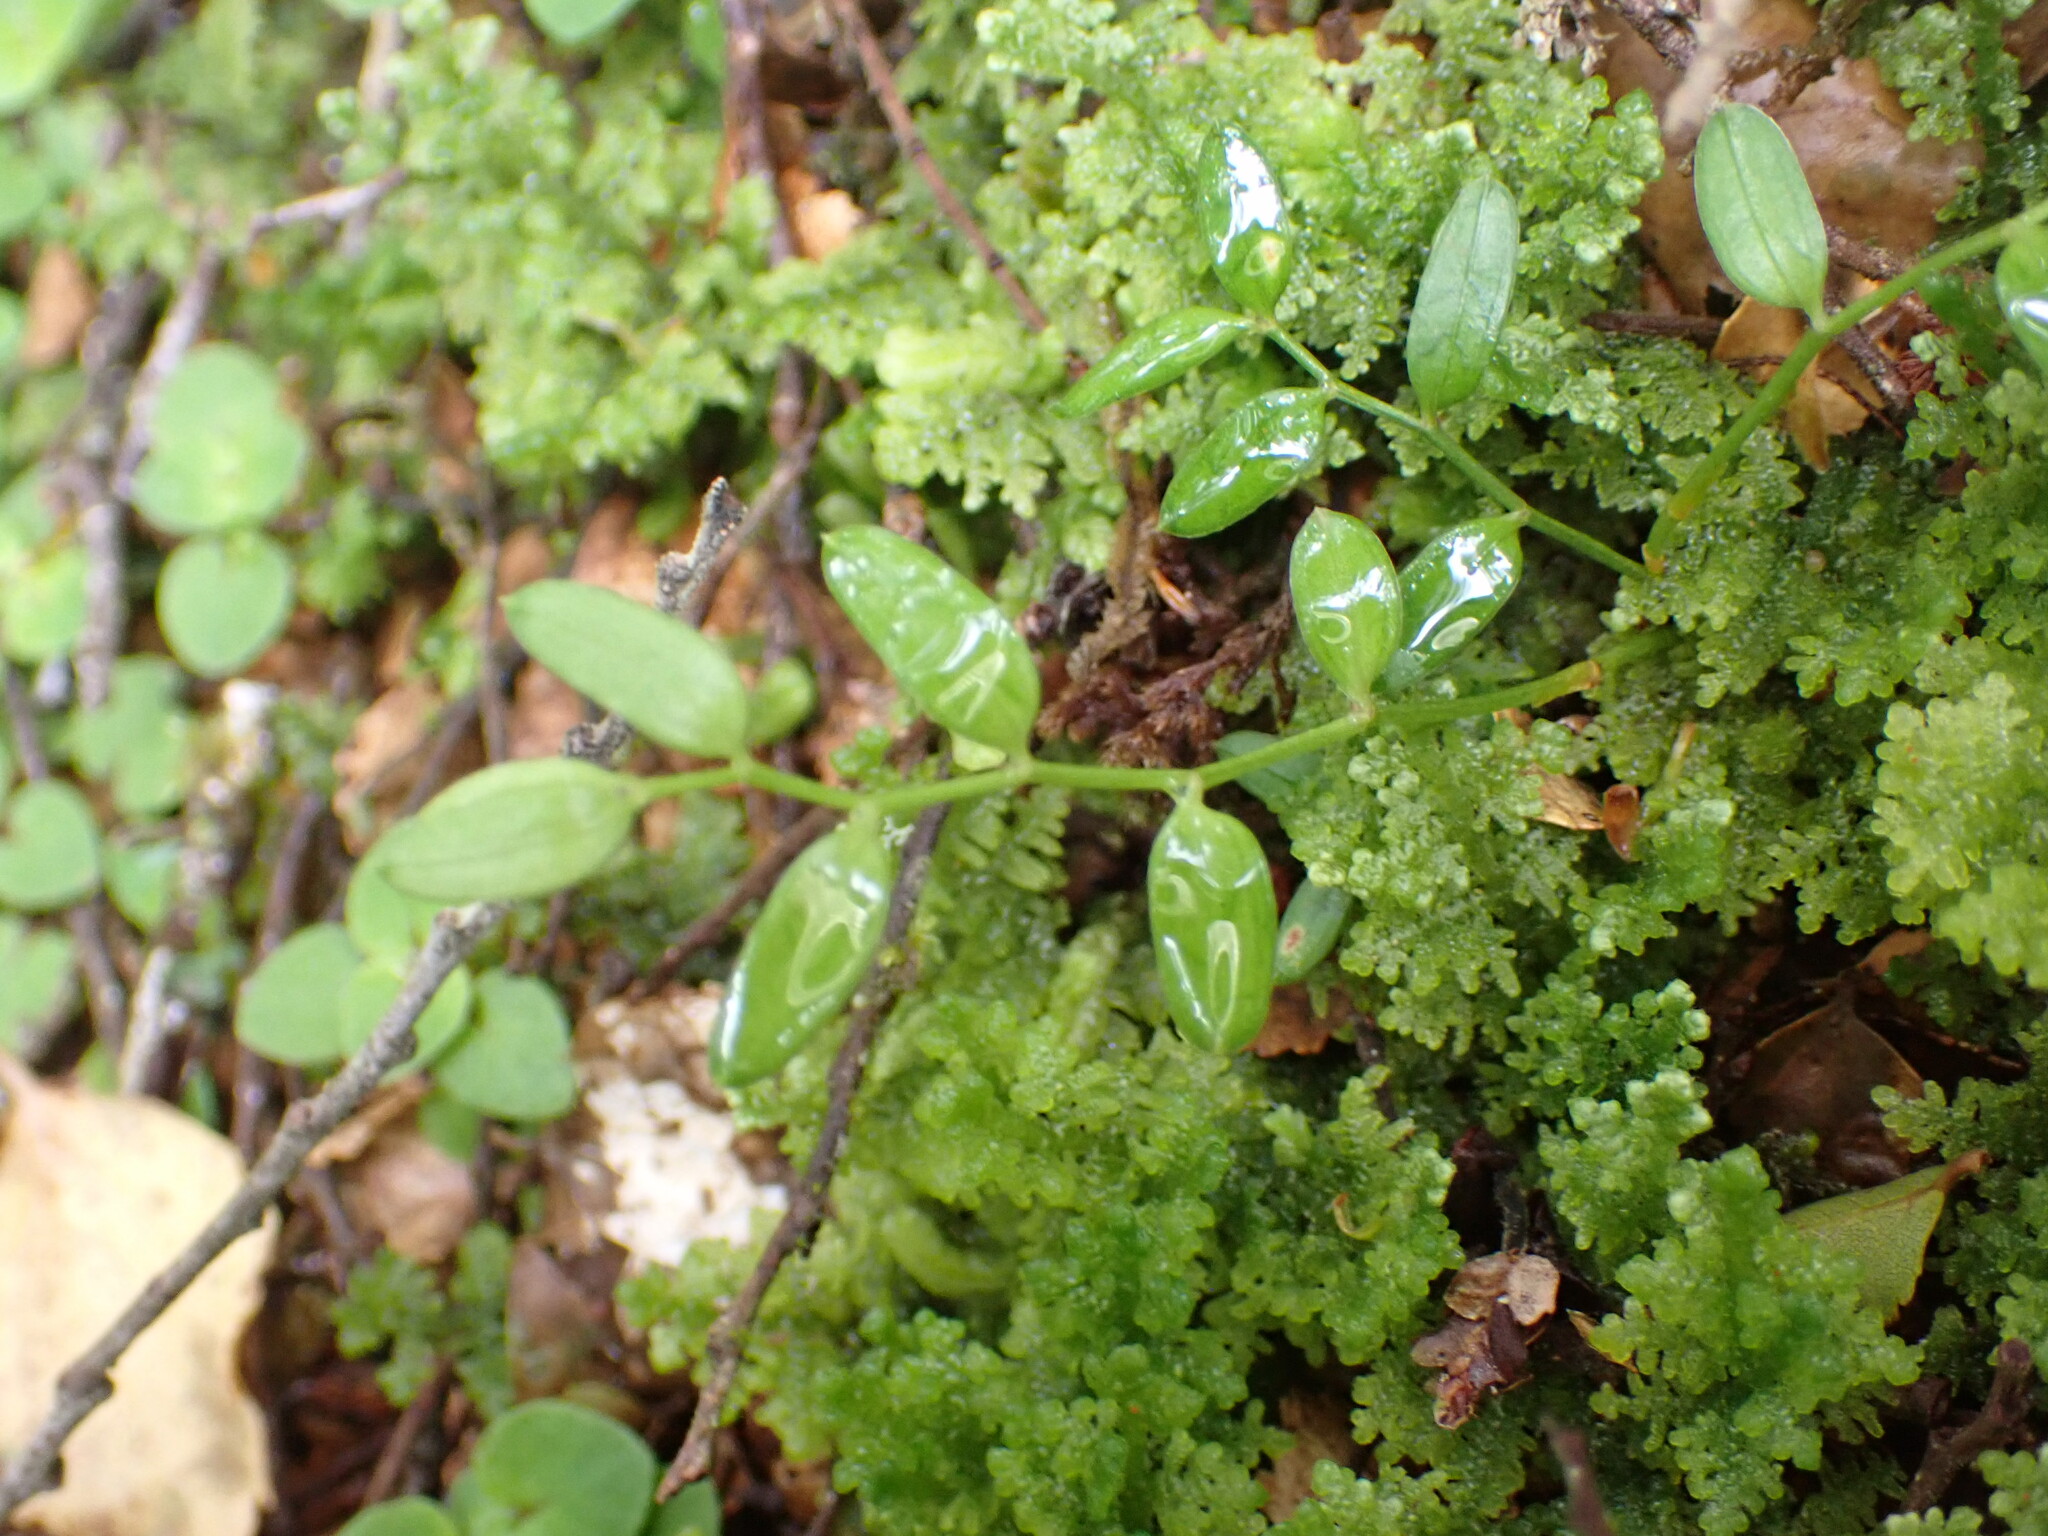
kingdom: Plantae
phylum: Tracheophyta
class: Liliopsida
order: Liliales
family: Alstroemeriaceae
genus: Luzuriaga
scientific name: Luzuriaga parviflora
